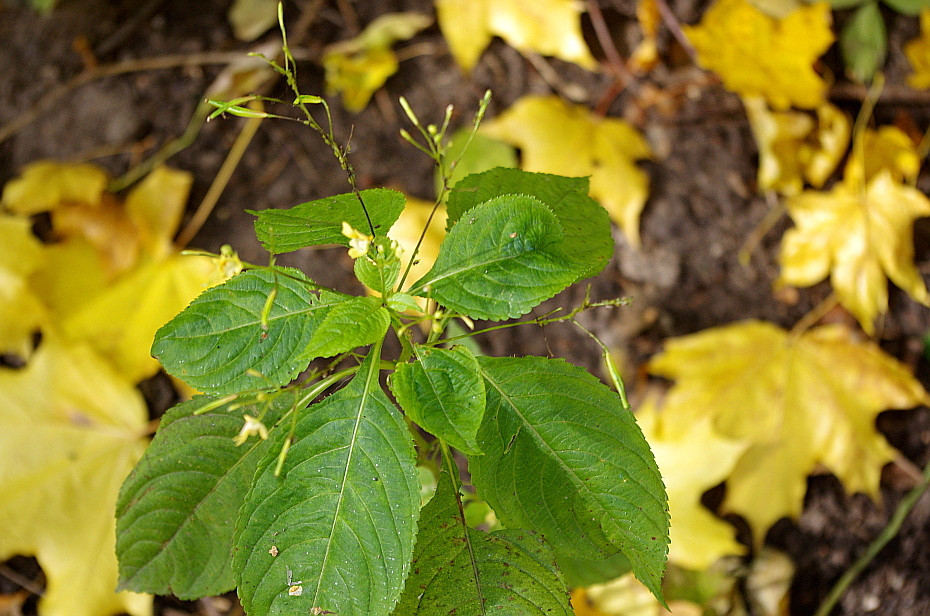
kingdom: Plantae
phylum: Tracheophyta
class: Magnoliopsida
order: Ericales
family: Balsaminaceae
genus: Impatiens
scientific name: Impatiens parviflora
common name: Small balsam
